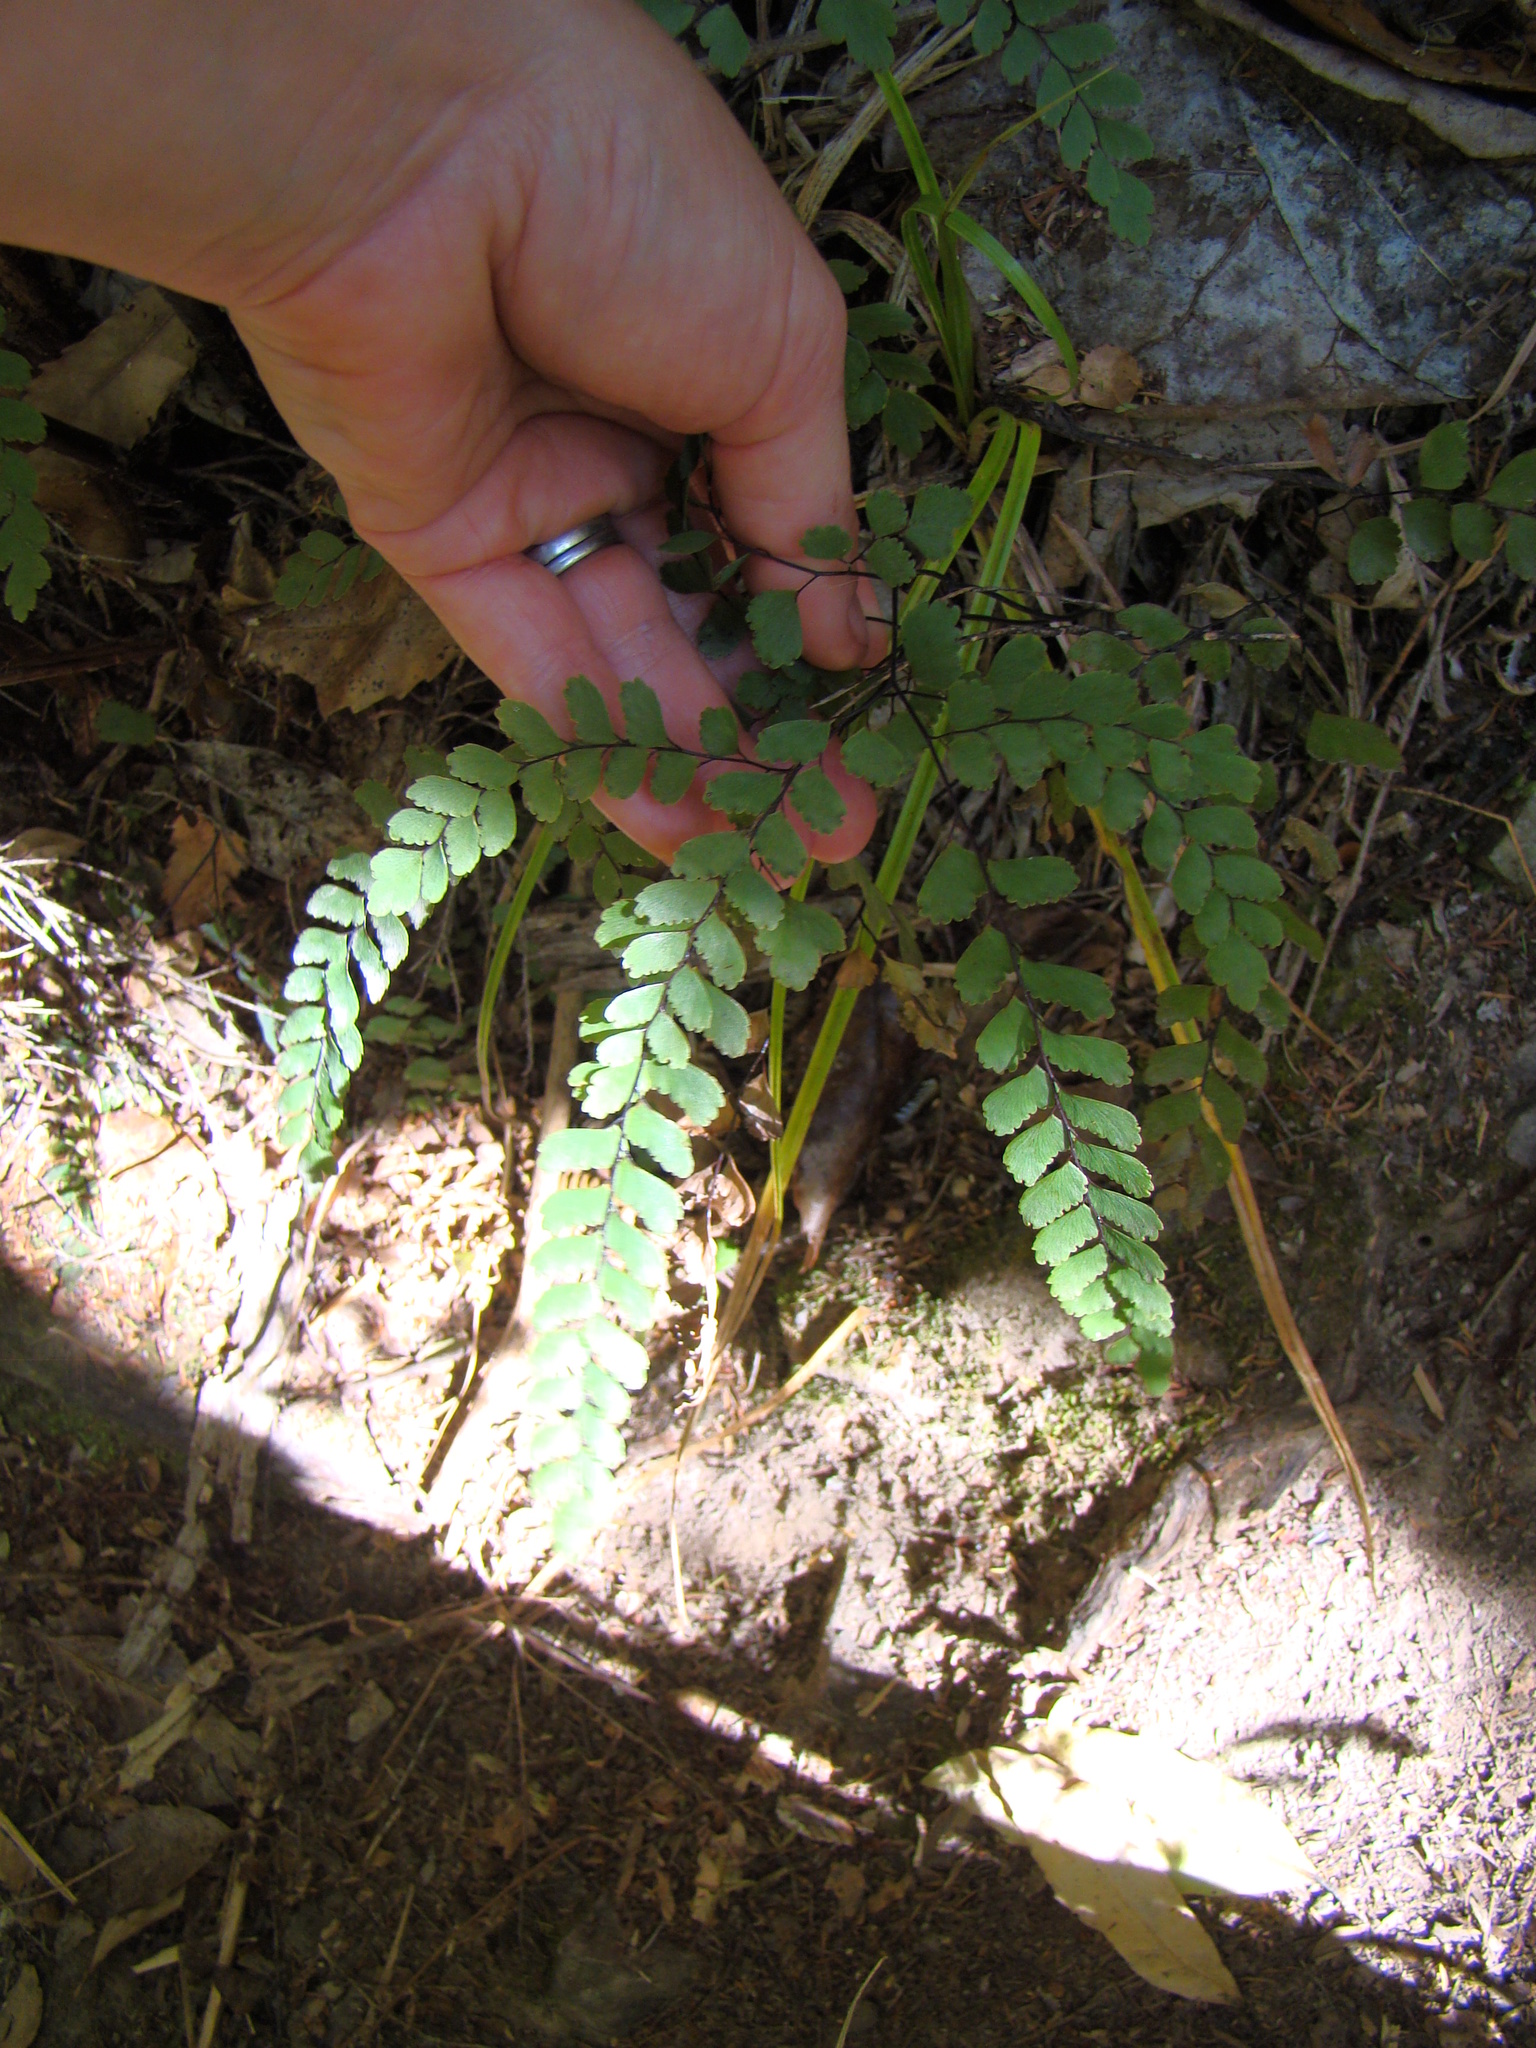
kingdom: Plantae
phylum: Tracheophyta
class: Polypodiopsida
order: Polypodiales
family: Pteridaceae
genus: Adiantum
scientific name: Adiantum cunninghamii
